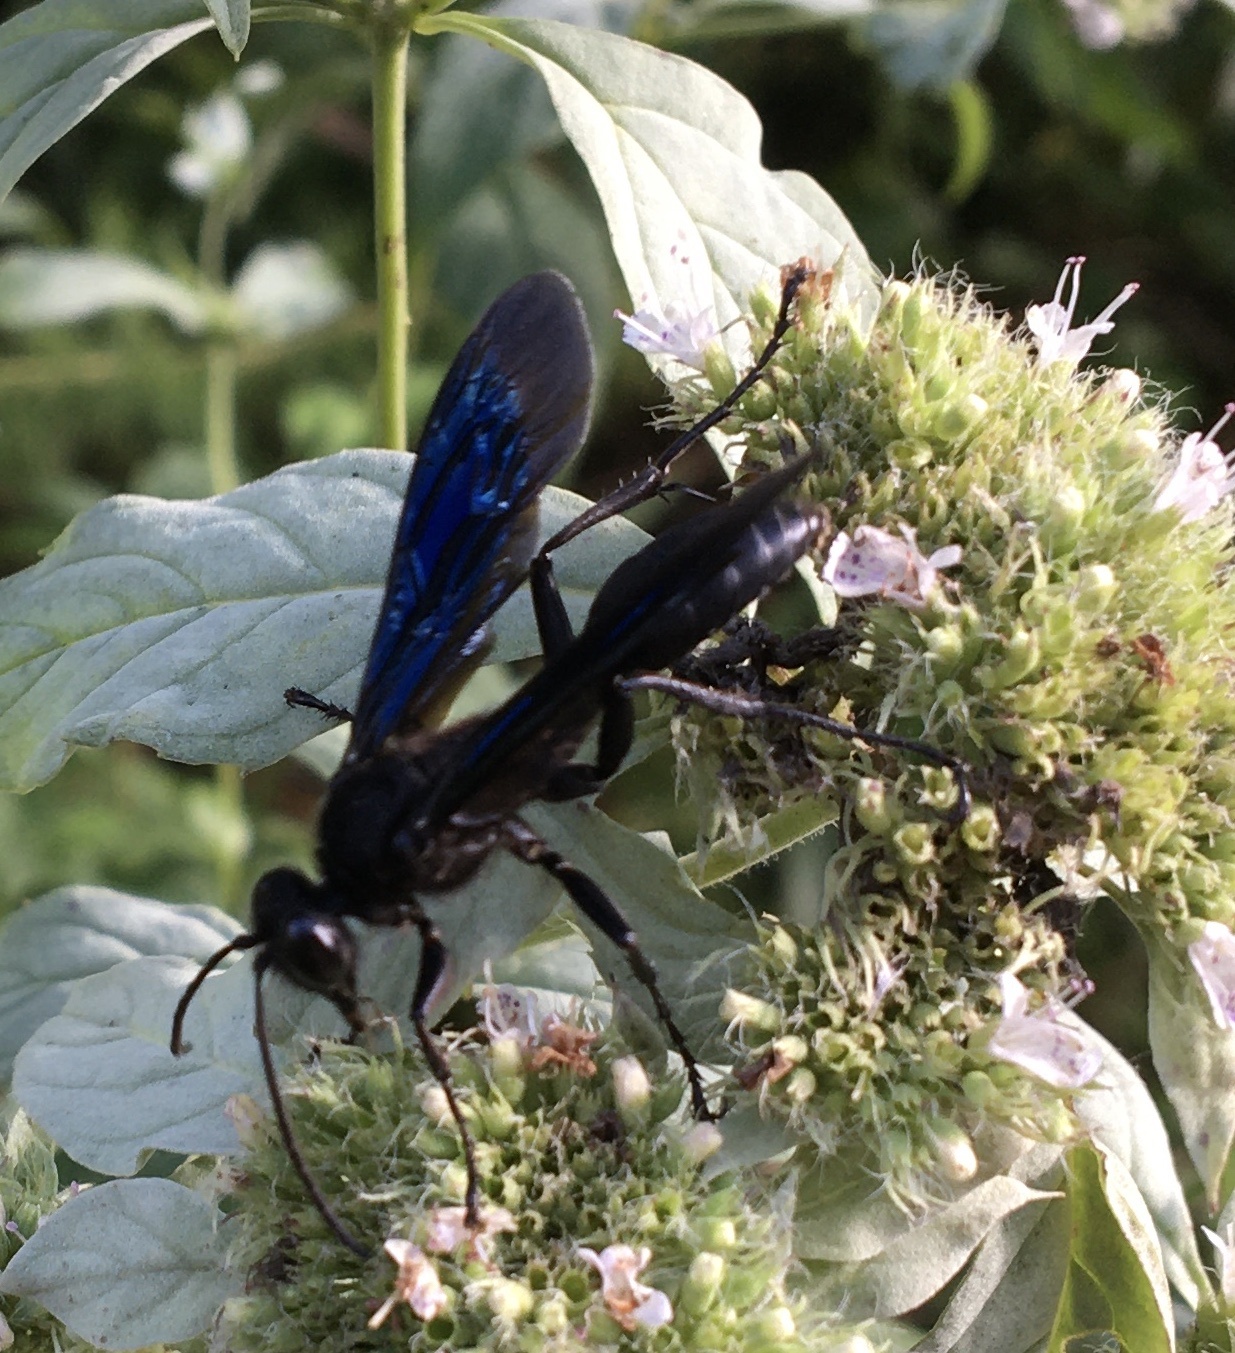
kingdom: Animalia
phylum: Arthropoda
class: Insecta
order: Hymenoptera
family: Sphecidae
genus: Sphex
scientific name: Sphex pensylvanicus
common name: Great black digger wasp
